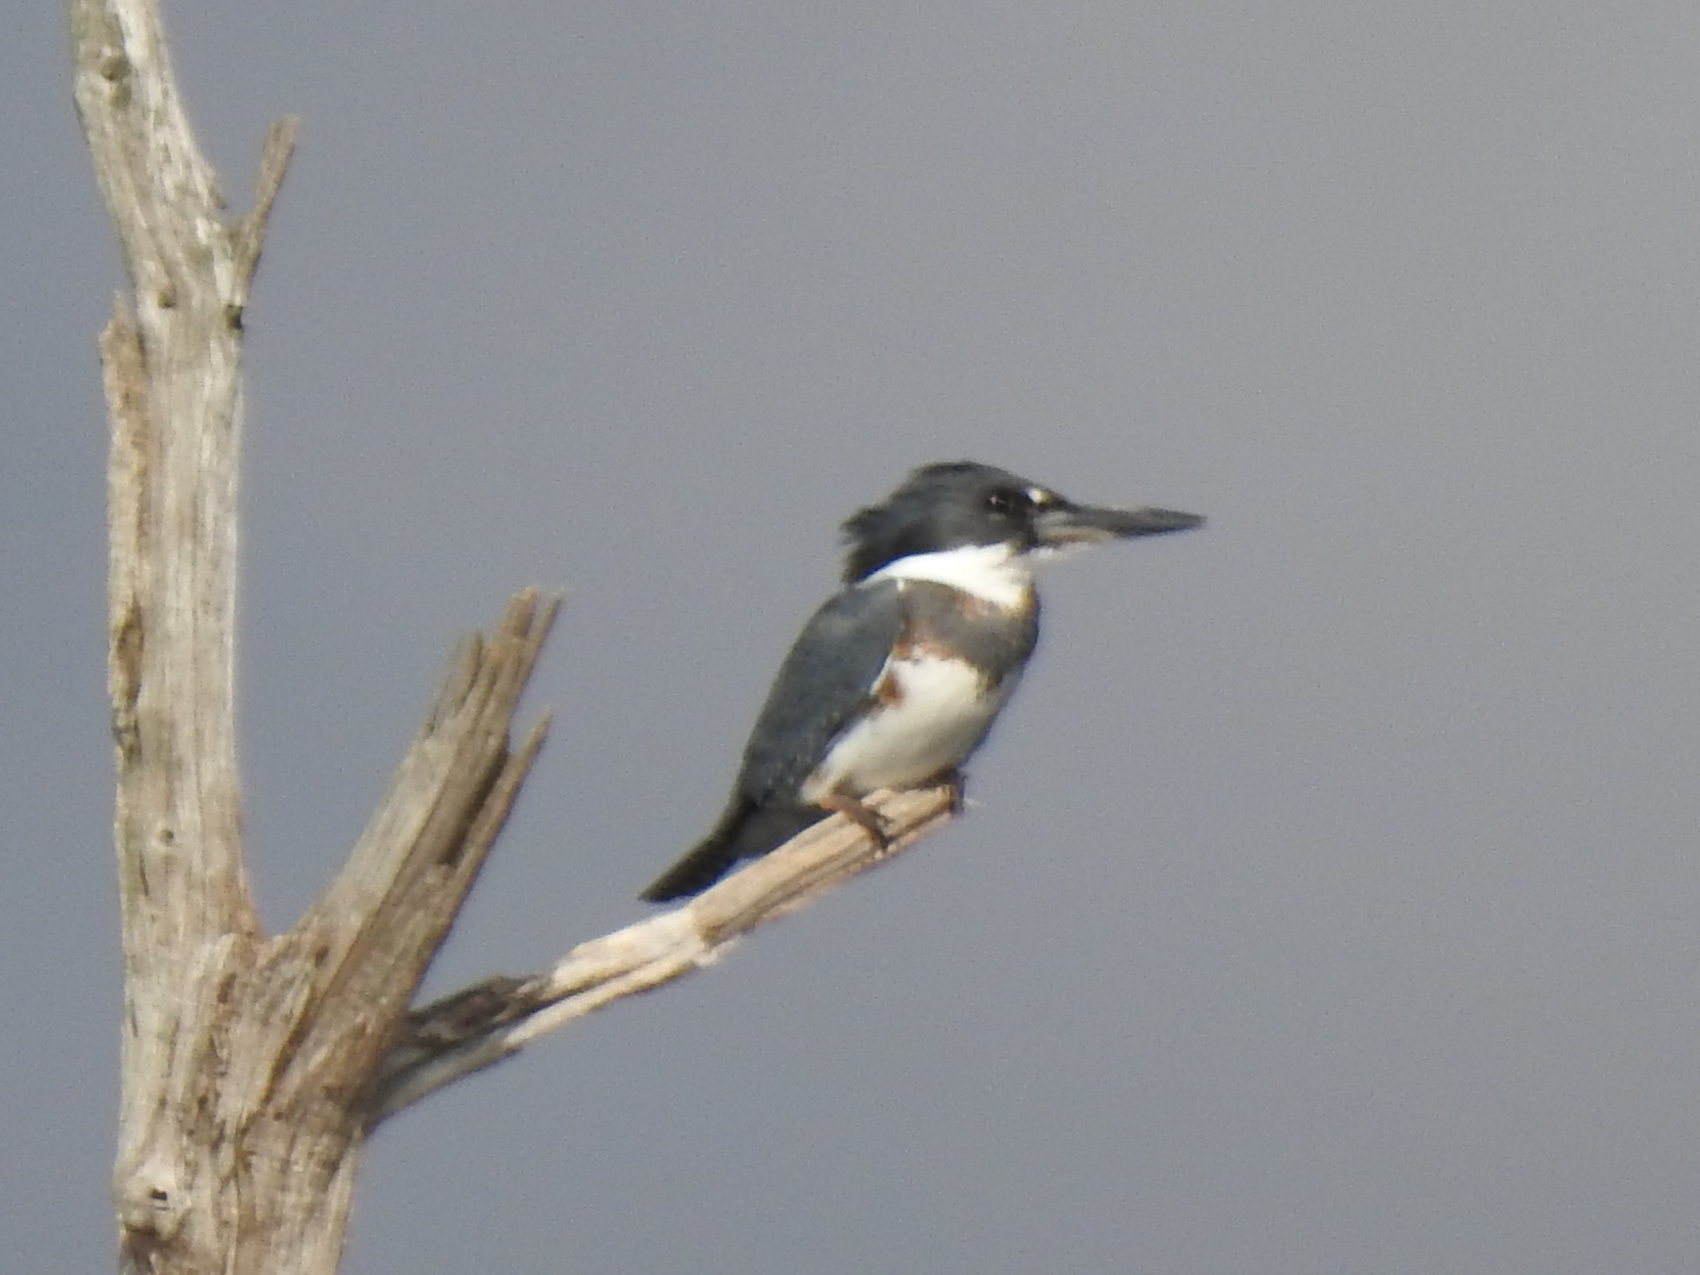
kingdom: Animalia
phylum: Chordata
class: Aves
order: Coraciiformes
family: Alcedinidae
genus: Megaceryle
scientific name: Megaceryle alcyon
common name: Belted kingfisher
